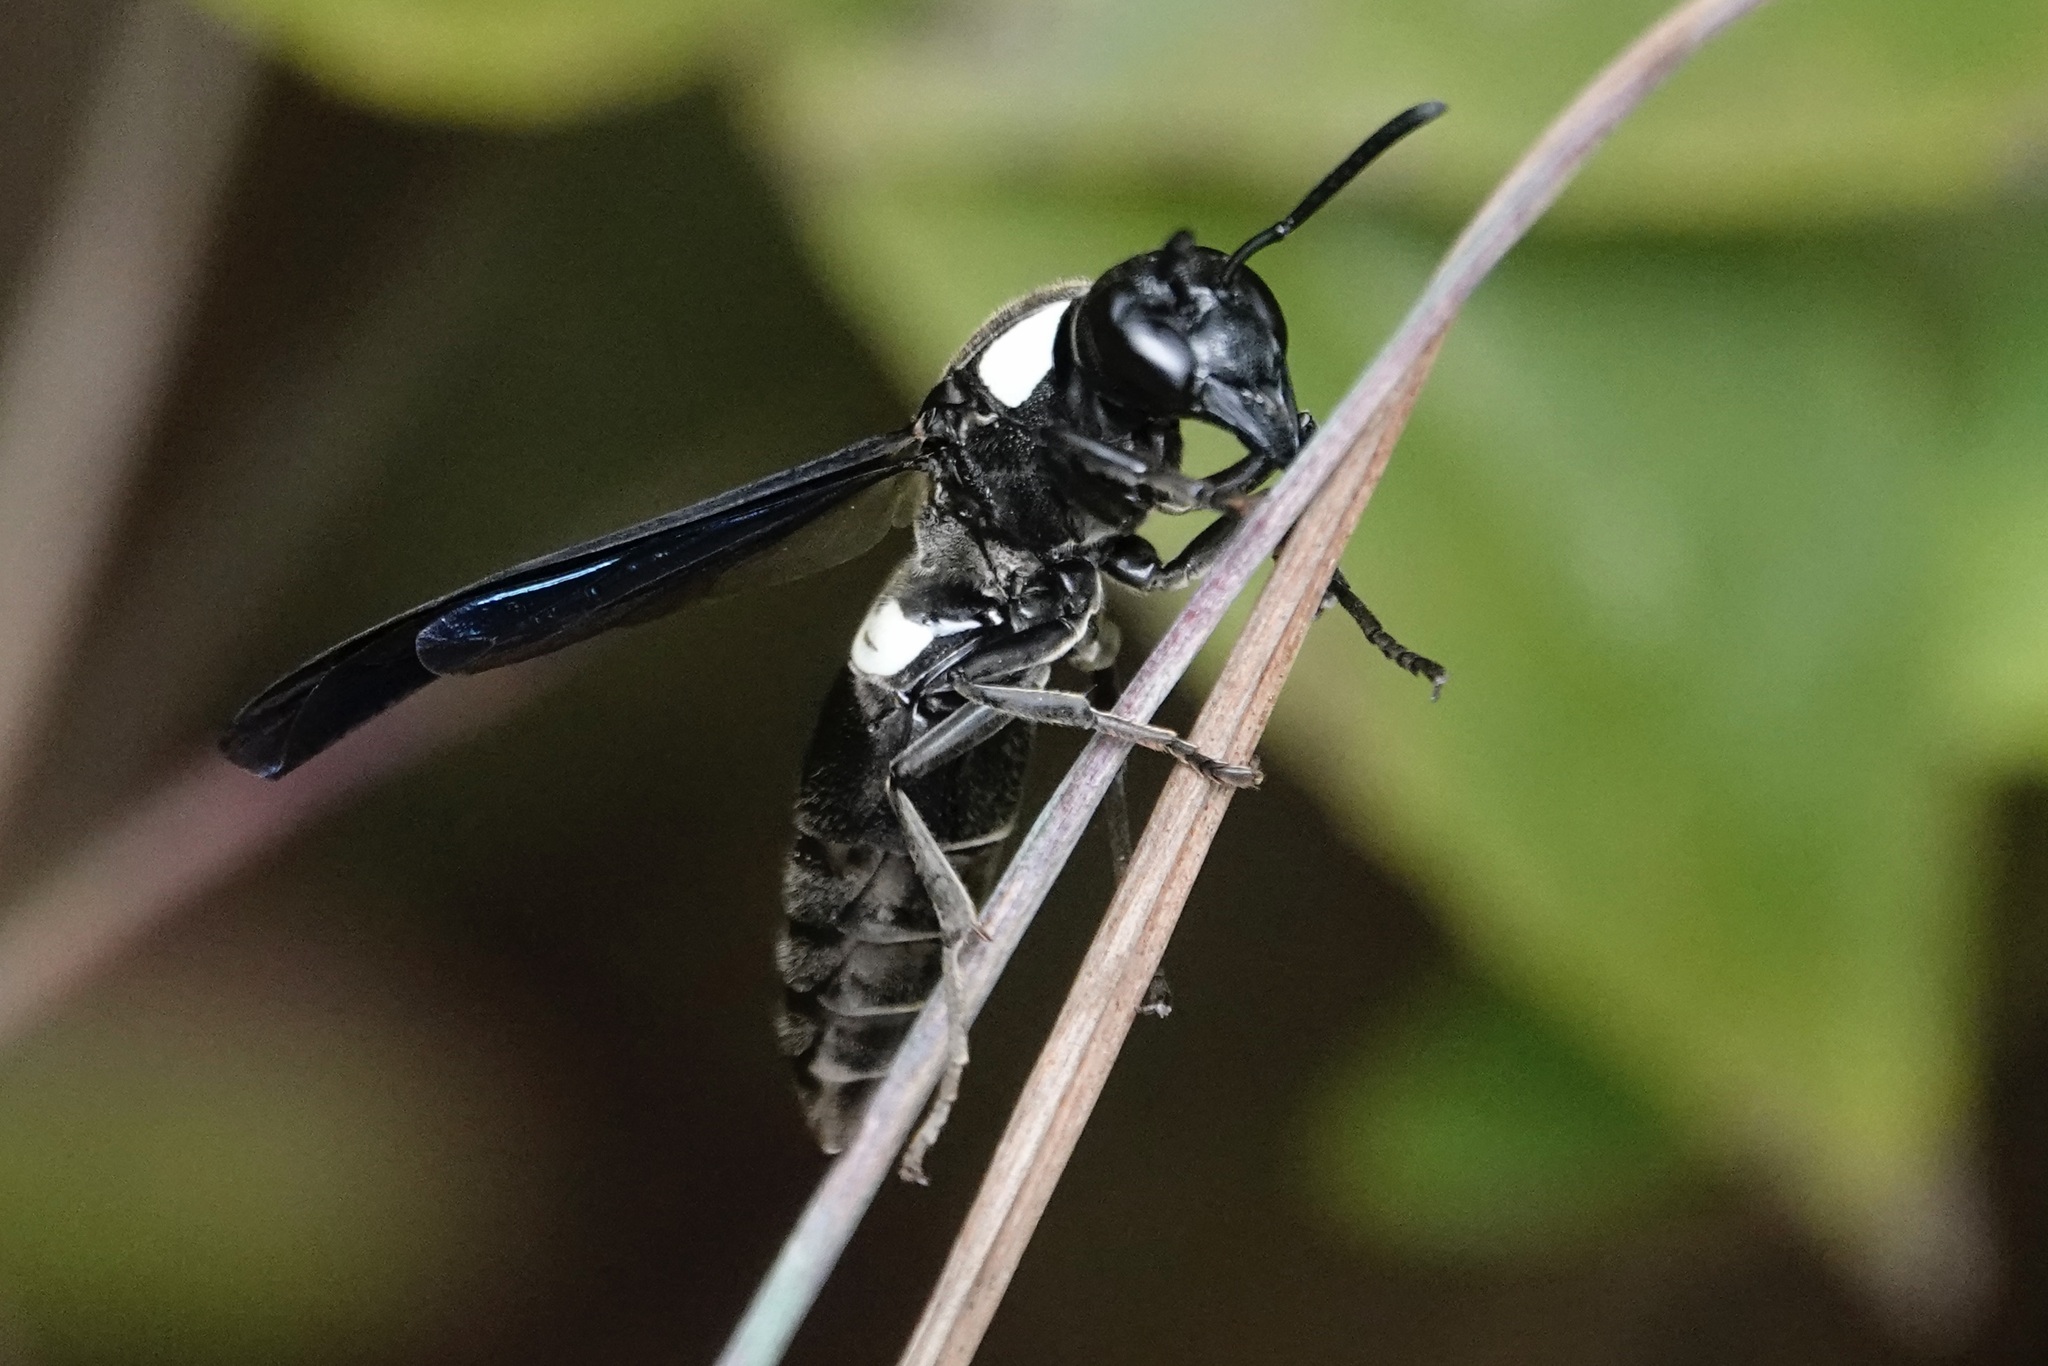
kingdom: Animalia
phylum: Arthropoda
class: Insecta
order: Hymenoptera
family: Eumenidae
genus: Monobia
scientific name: Monobia quadridens
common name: Four-toothed mason wasp
